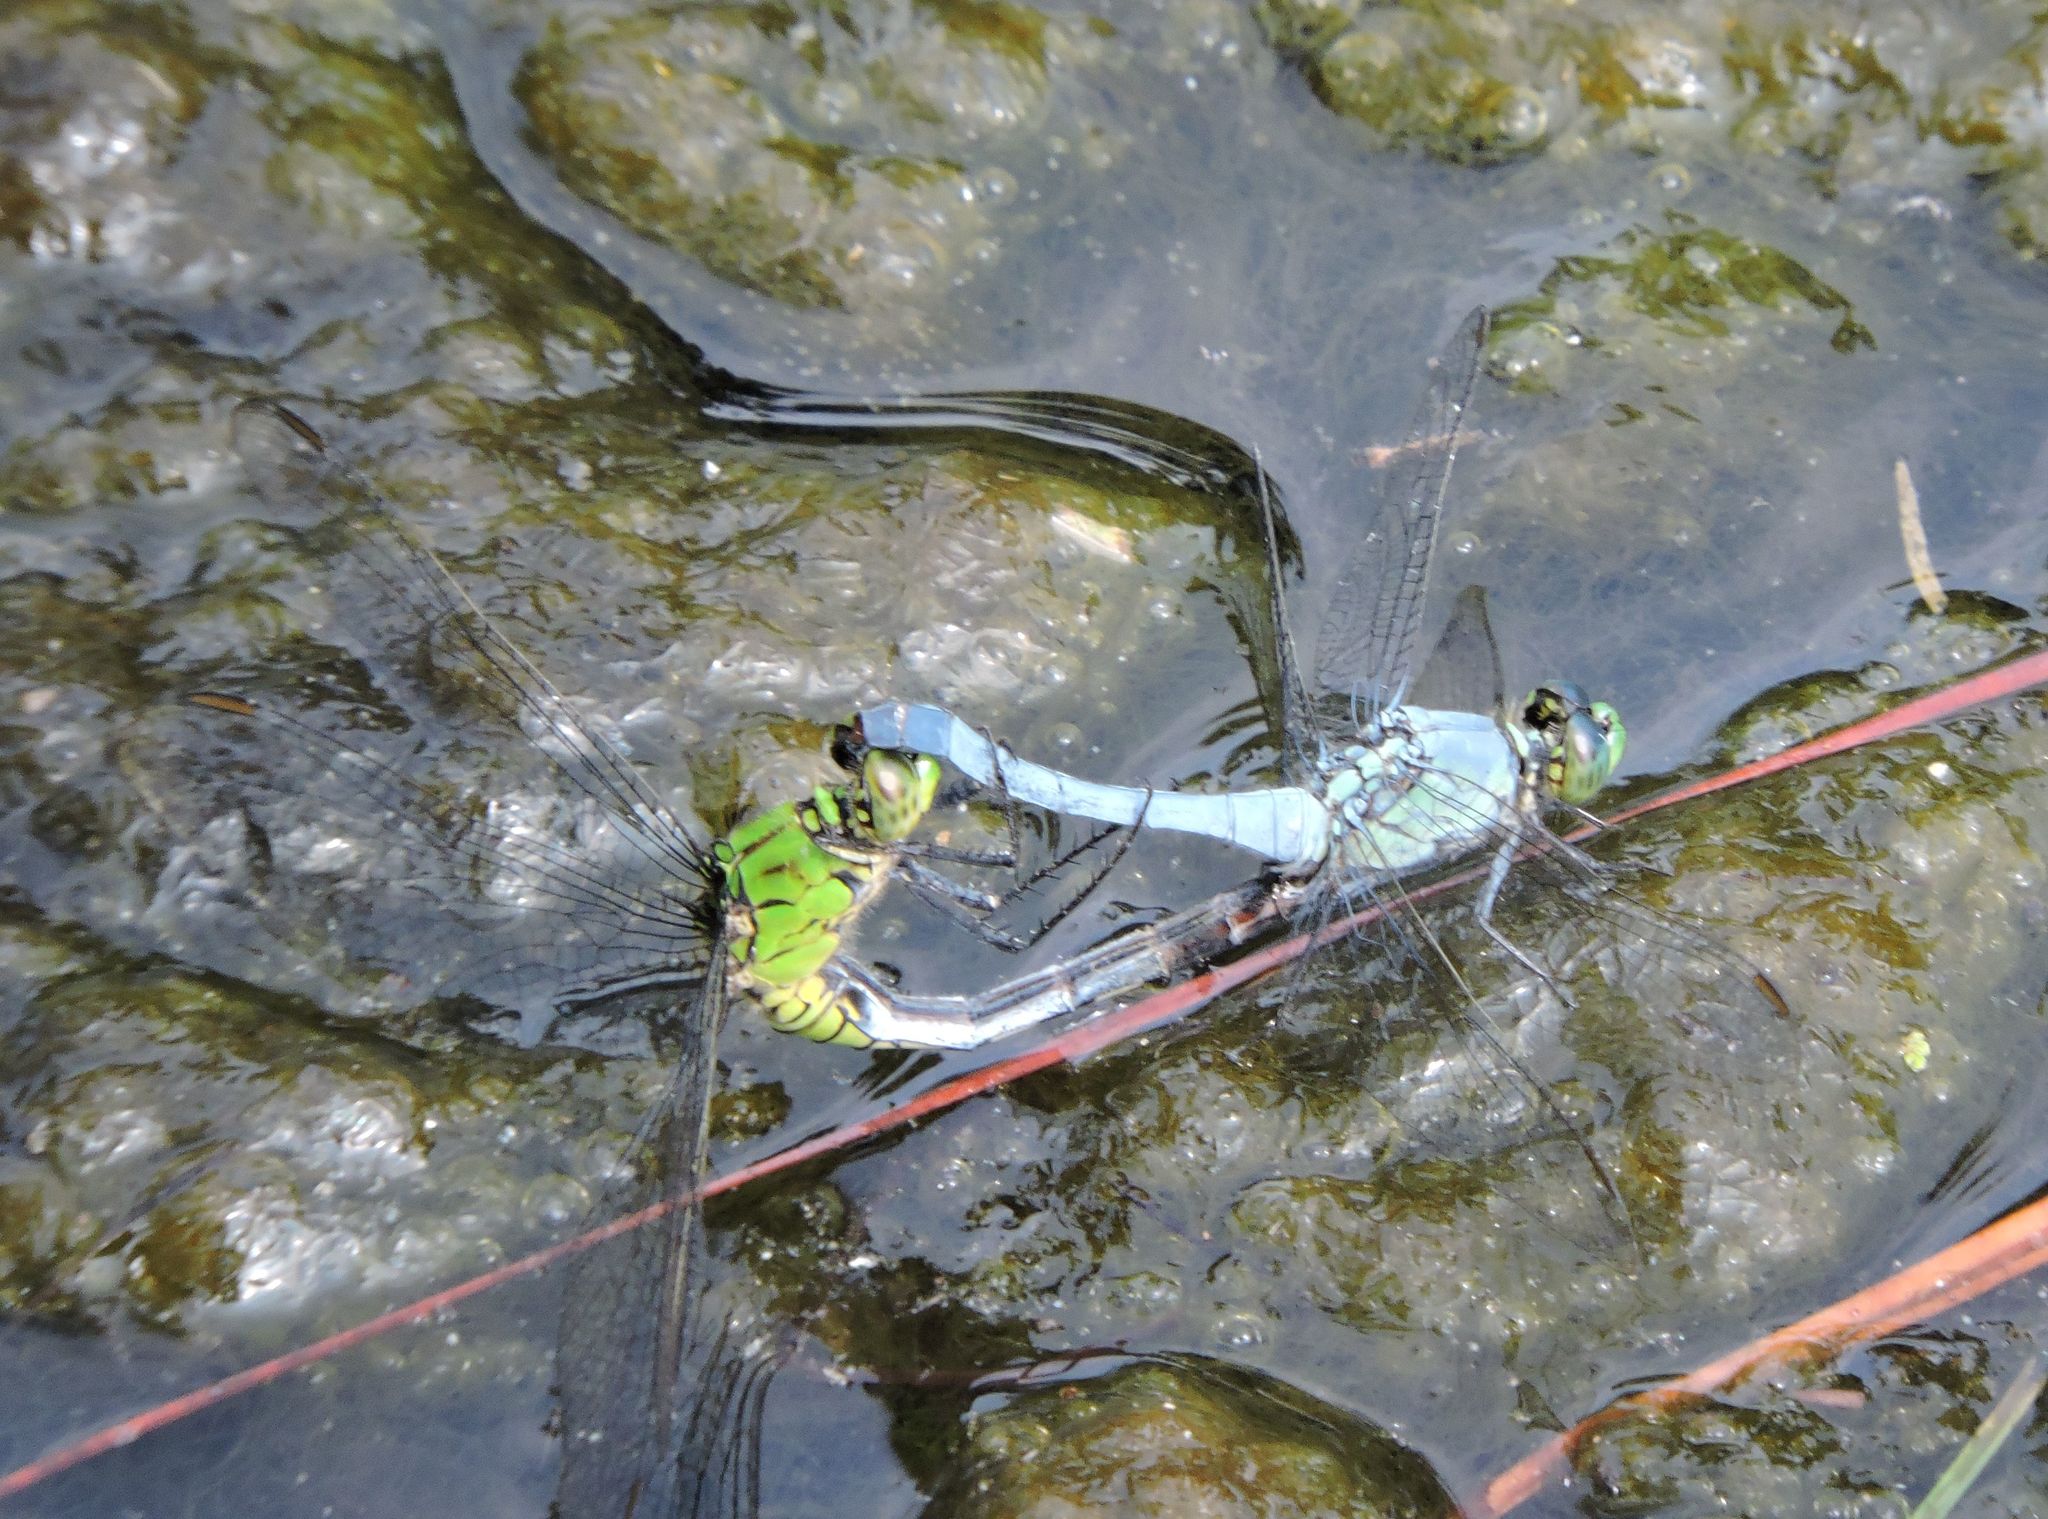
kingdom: Animalia
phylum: Arthropoda
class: Insecta
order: Odonata
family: Libellulidae
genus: Erythemis
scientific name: Erythemis simplicicollis
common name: Eastern pondhawk
